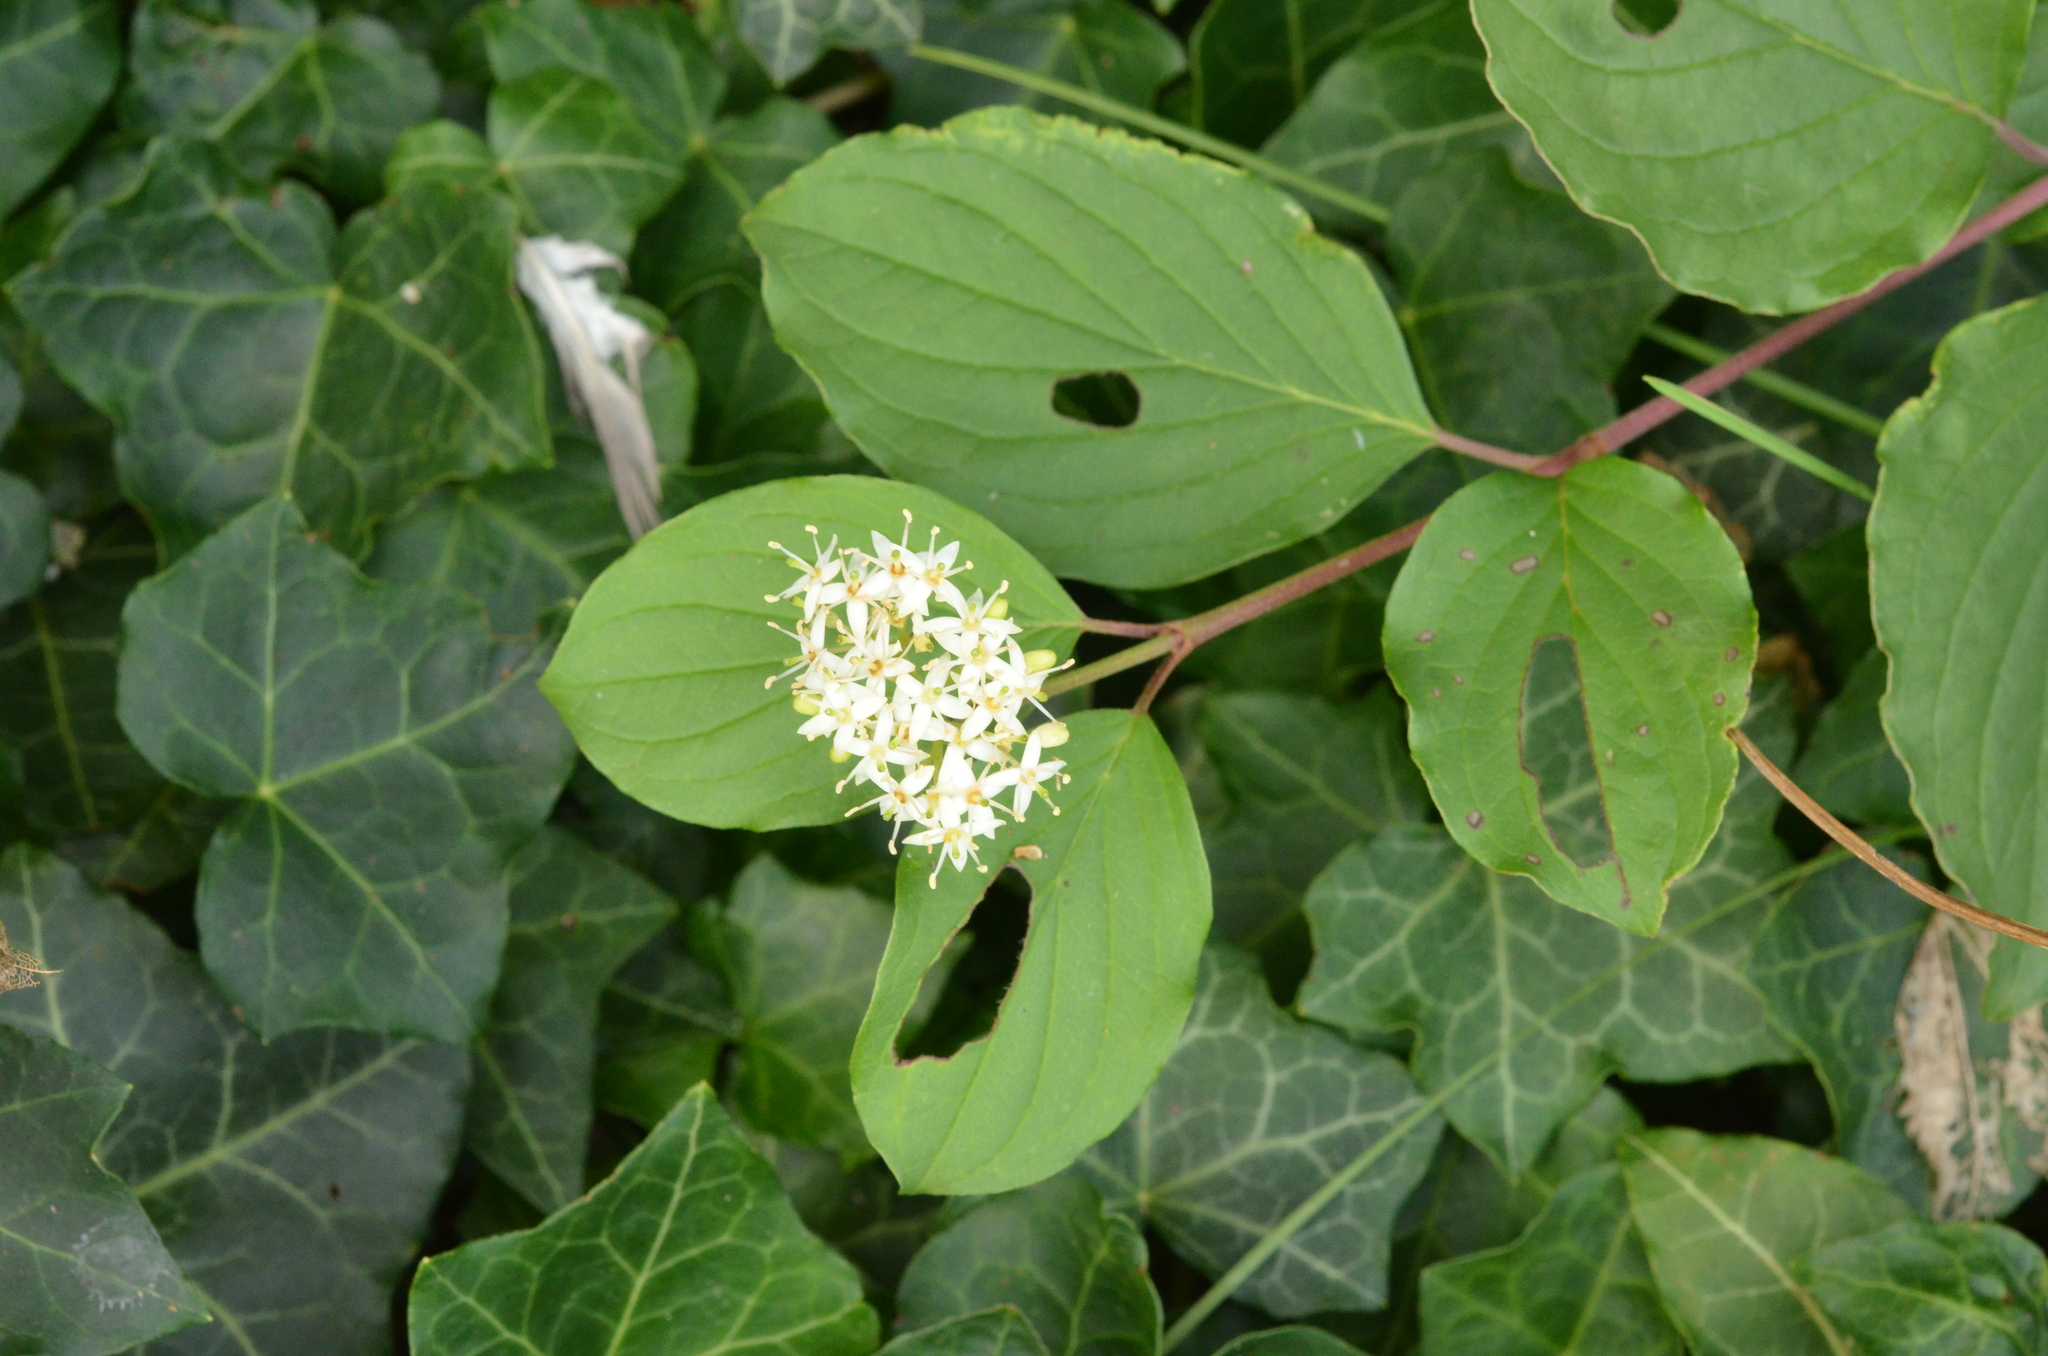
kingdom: Plantae
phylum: Tracheophyta
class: Magnoliopsida
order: Cornales
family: Cornaceae
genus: Cornus
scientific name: Cornus sanguinea
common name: Dogwood
